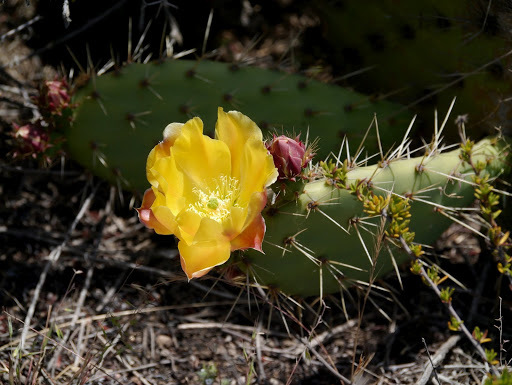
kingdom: Plantae
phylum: Tracheophyta
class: Magnoliopsida
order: Caryophyllales
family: Cactaceae
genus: Opuntia
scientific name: Opuntia littoralis
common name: Coastal prickly-pear
